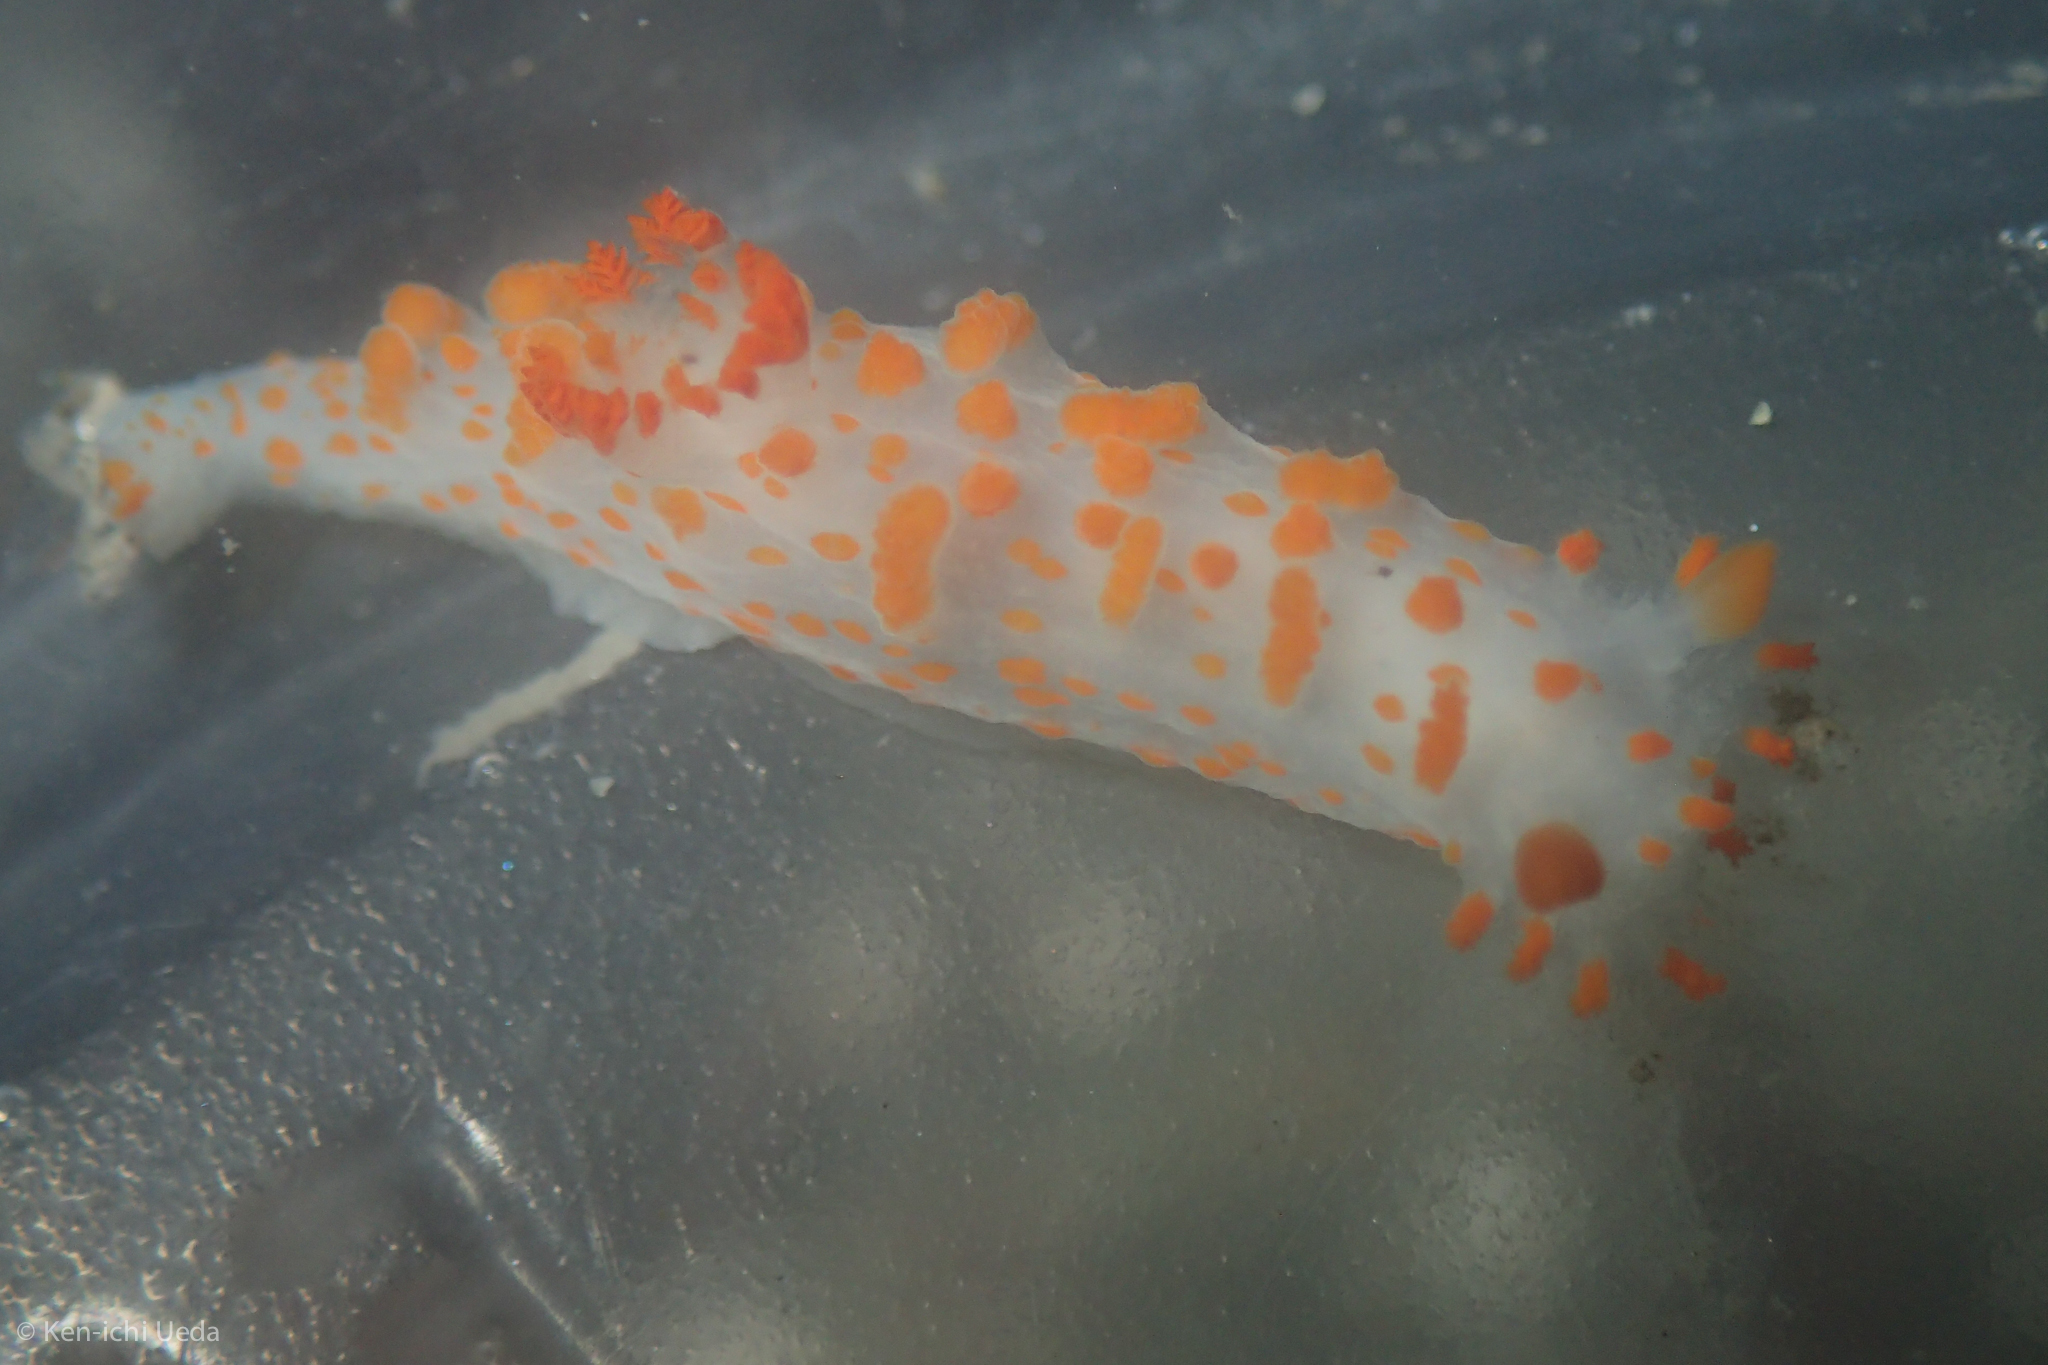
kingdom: Animalia
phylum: Mollusca
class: Gastropoda
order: Nudibranchia
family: Polyceridae
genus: Triopha
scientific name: Triopha catalinae
